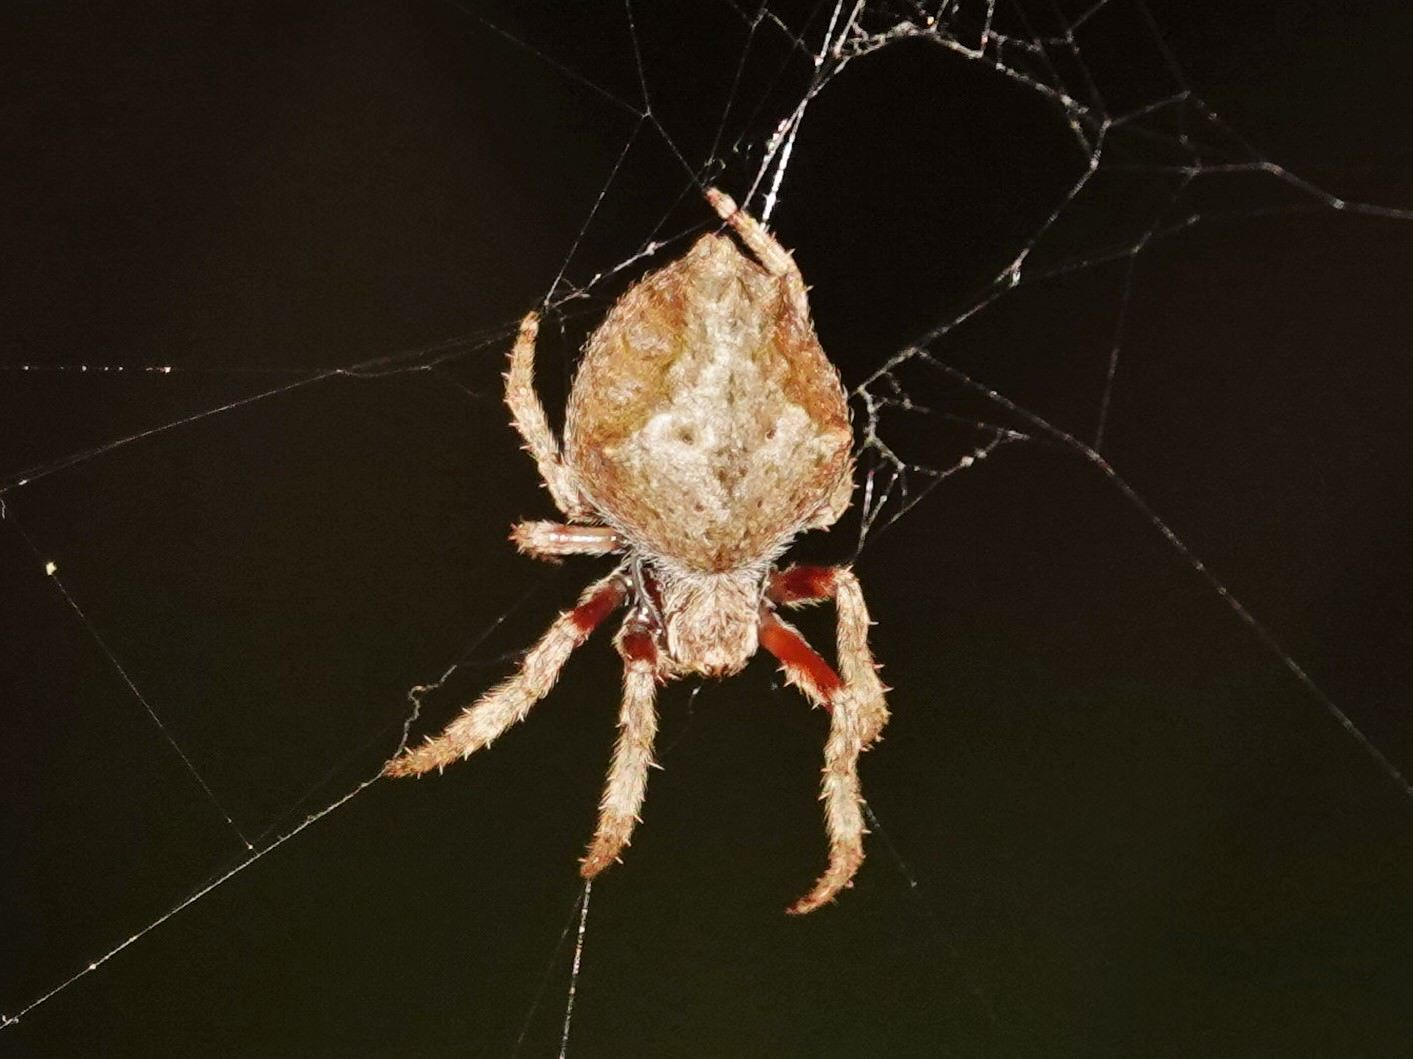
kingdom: Animalia
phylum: Arthropoda
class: Arachnida
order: Araneae
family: Araneidae
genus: Eriophora
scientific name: Eriophora pustulosa
